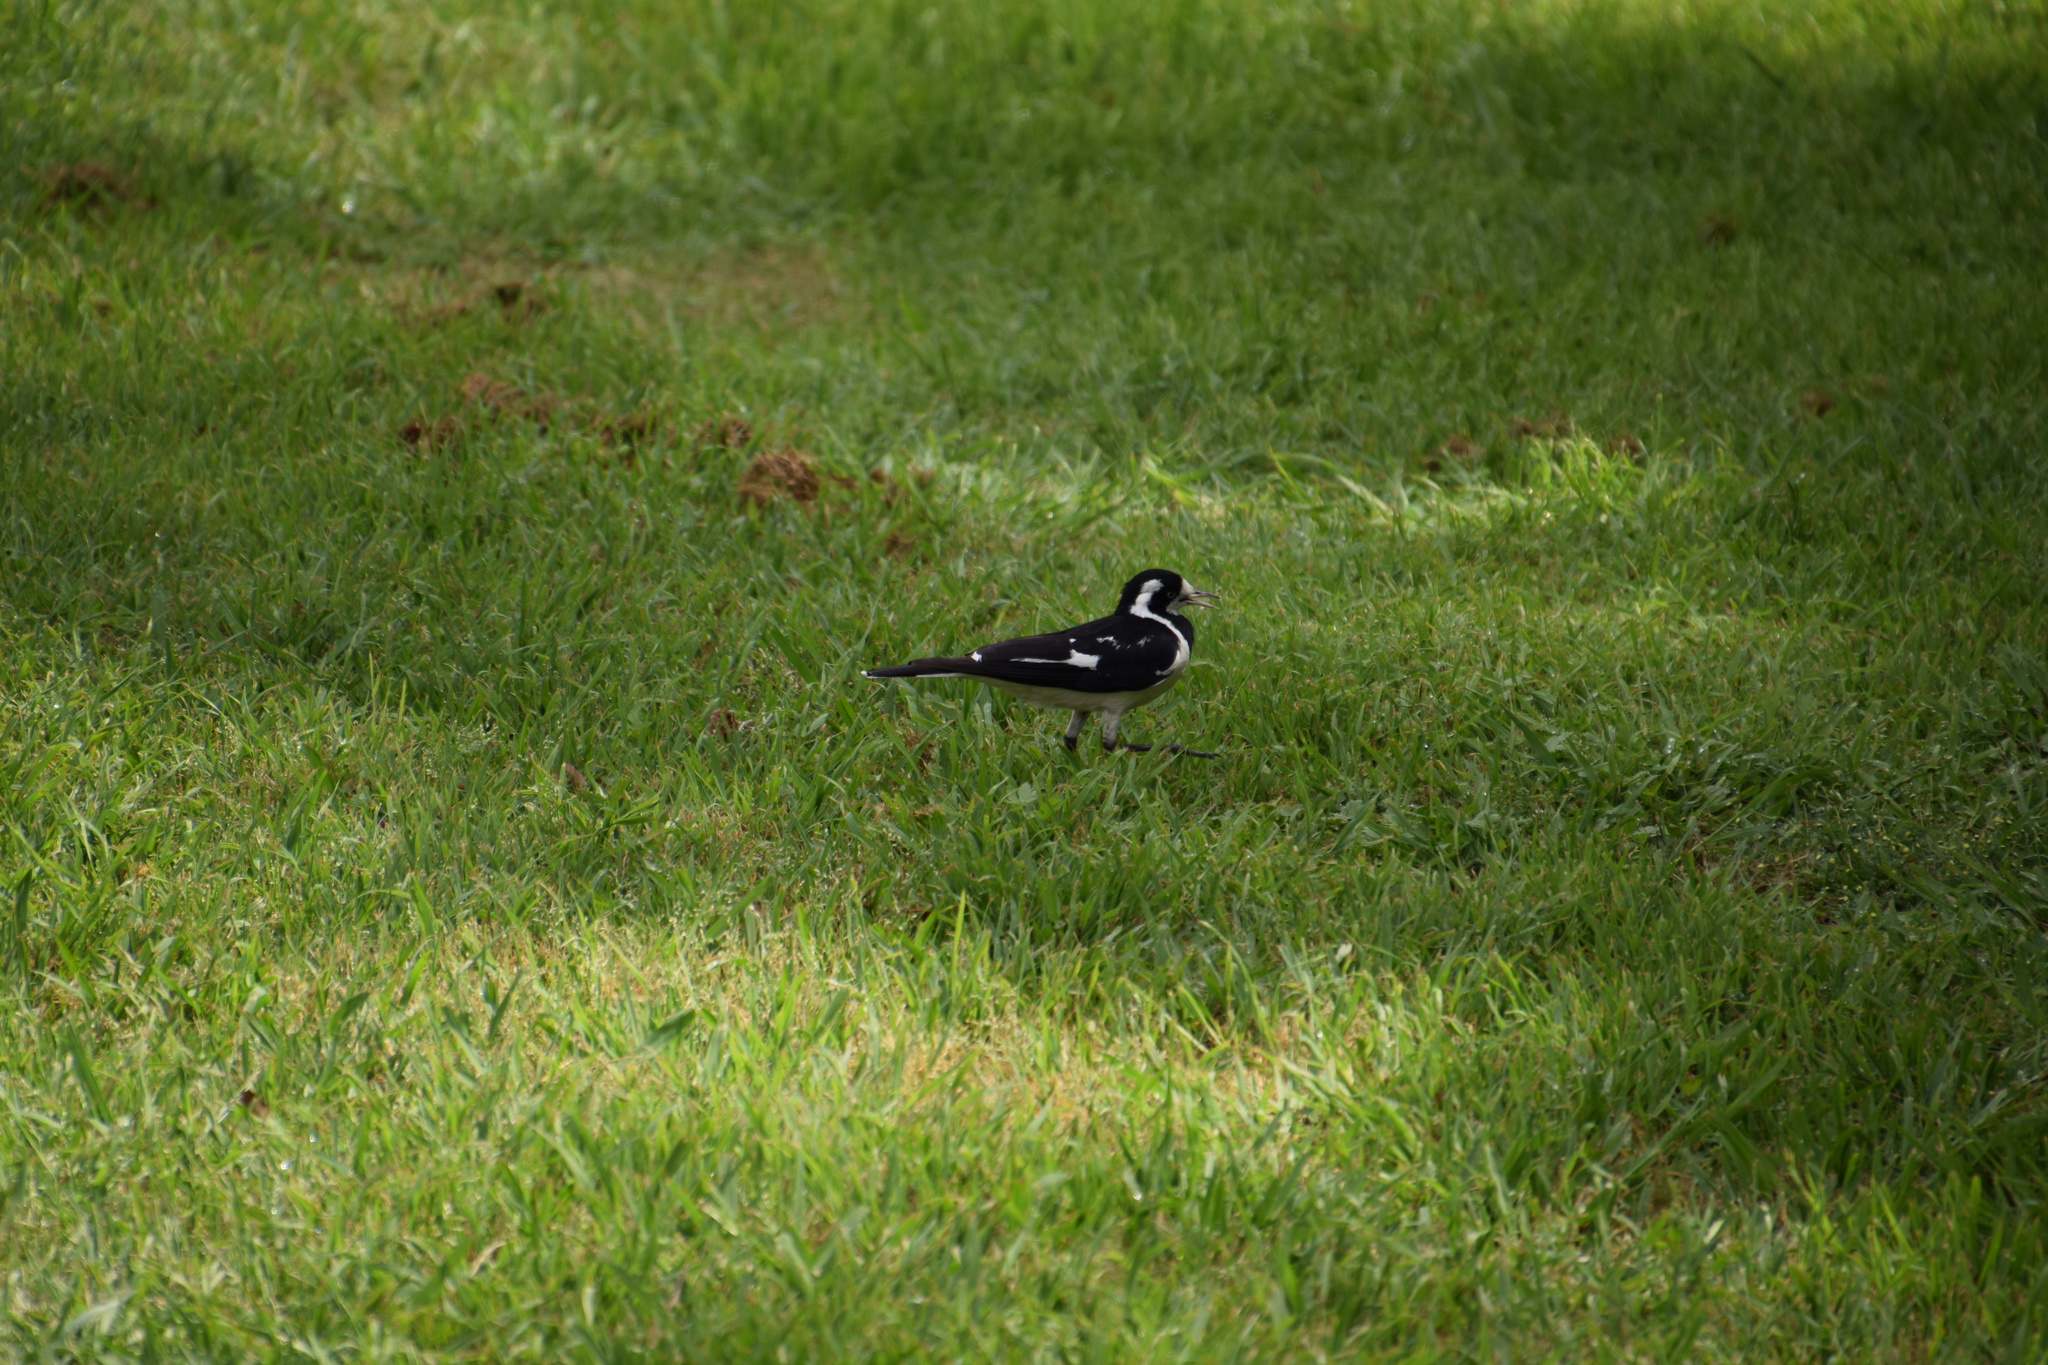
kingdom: Animalia
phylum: Chordata
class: Aves
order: Passeriformes
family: Monarchidae
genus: Grallina
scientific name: Grallina cyanoleuca
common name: Magpie-lark
